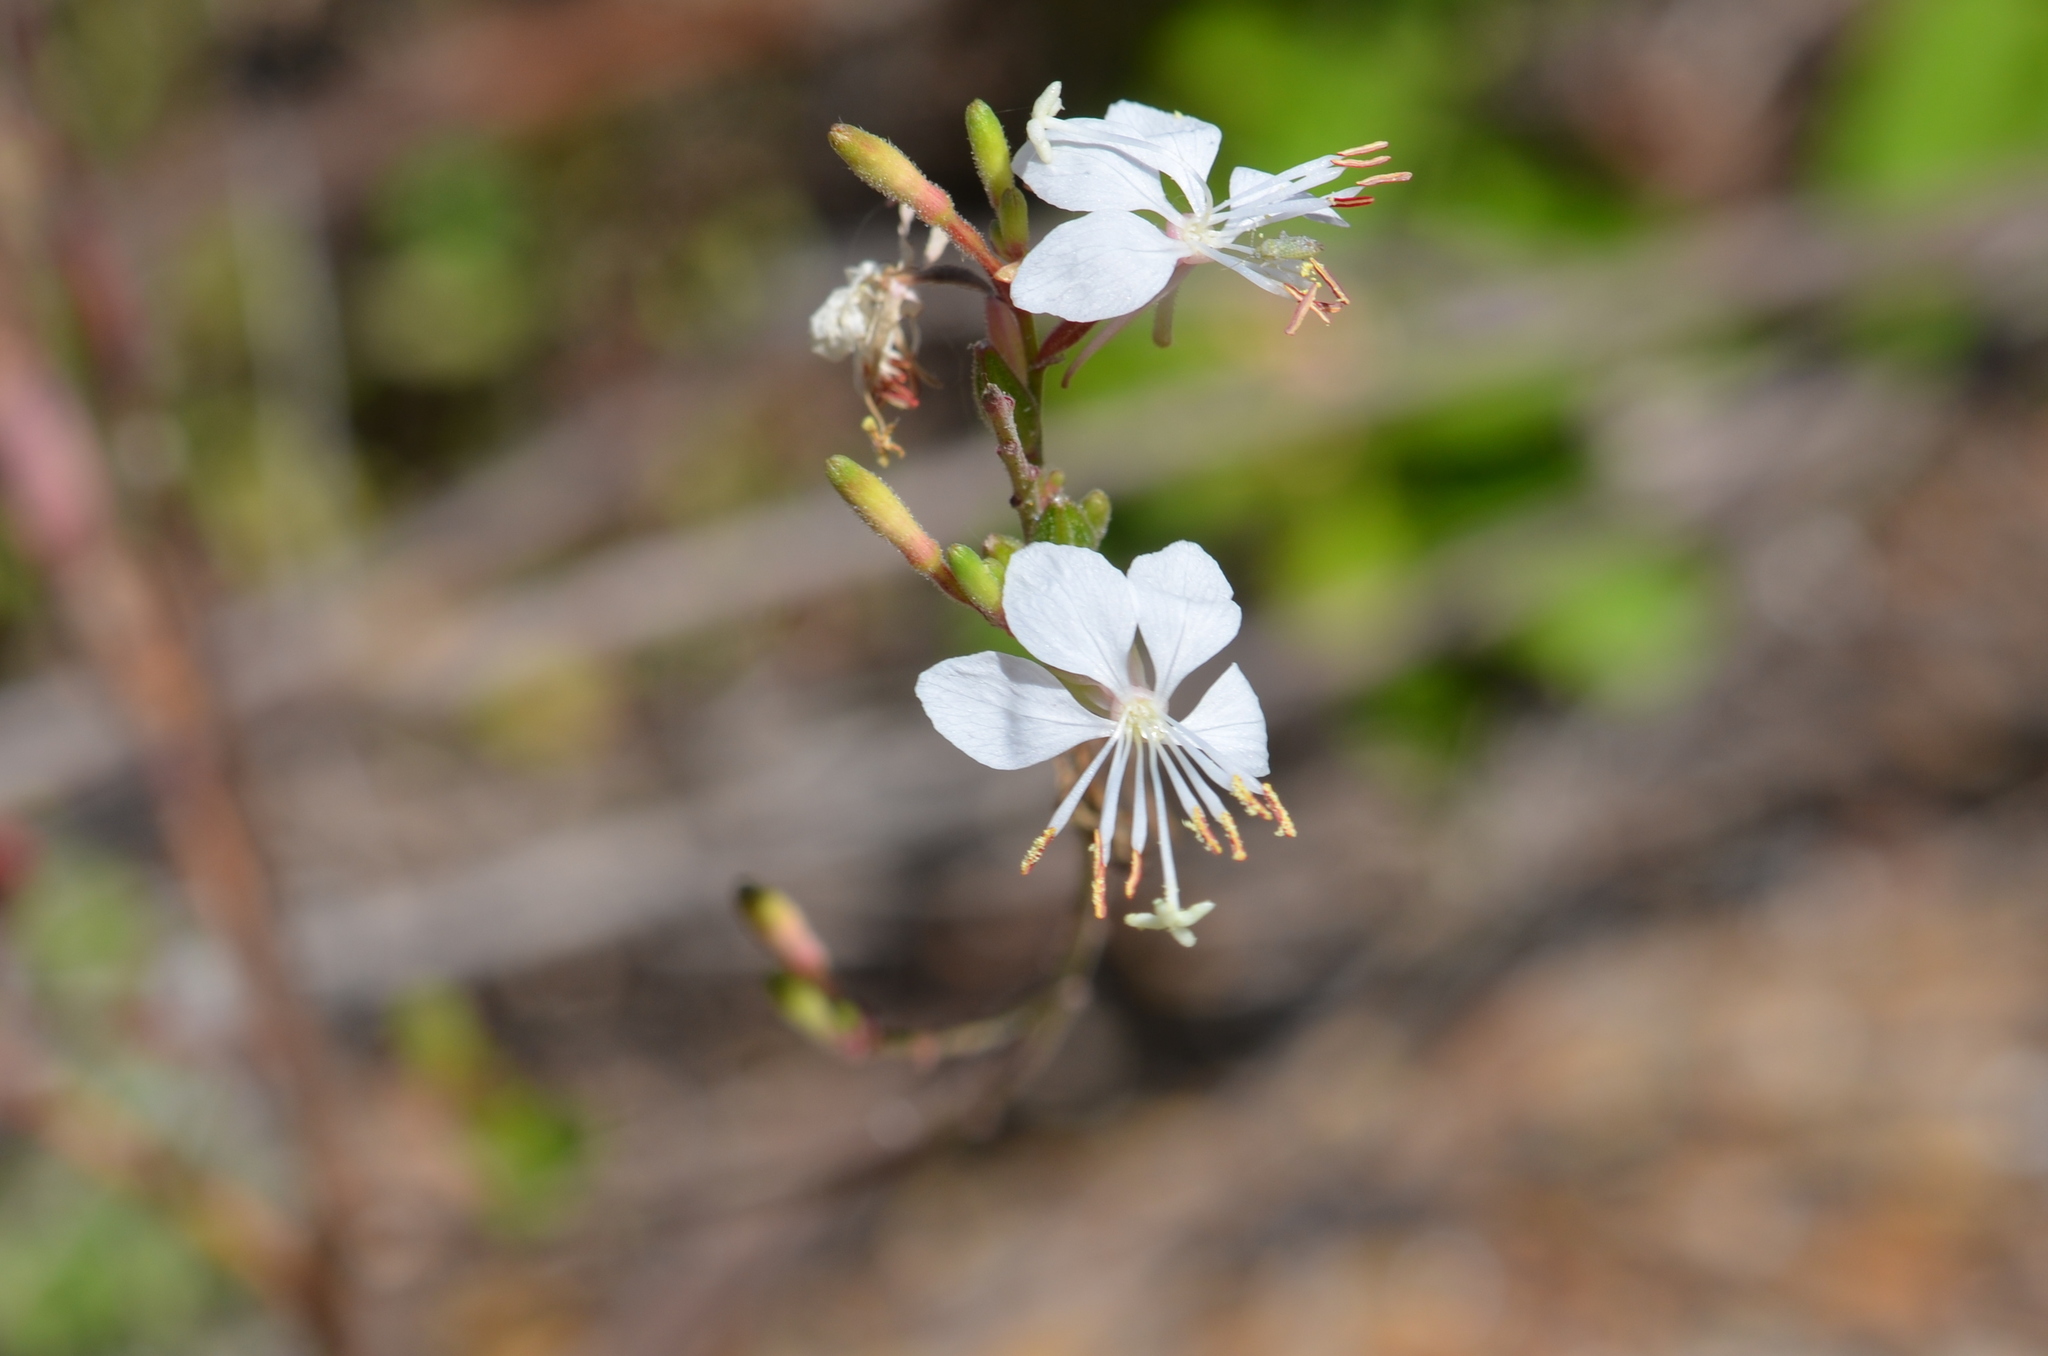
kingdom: Plantae
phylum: Tracheophyta
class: Magnoliopsida
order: Myrtales
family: Onagraceae
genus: Oenothera
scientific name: Oenothera lindheimeri
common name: Lindheimer's beeblossom
